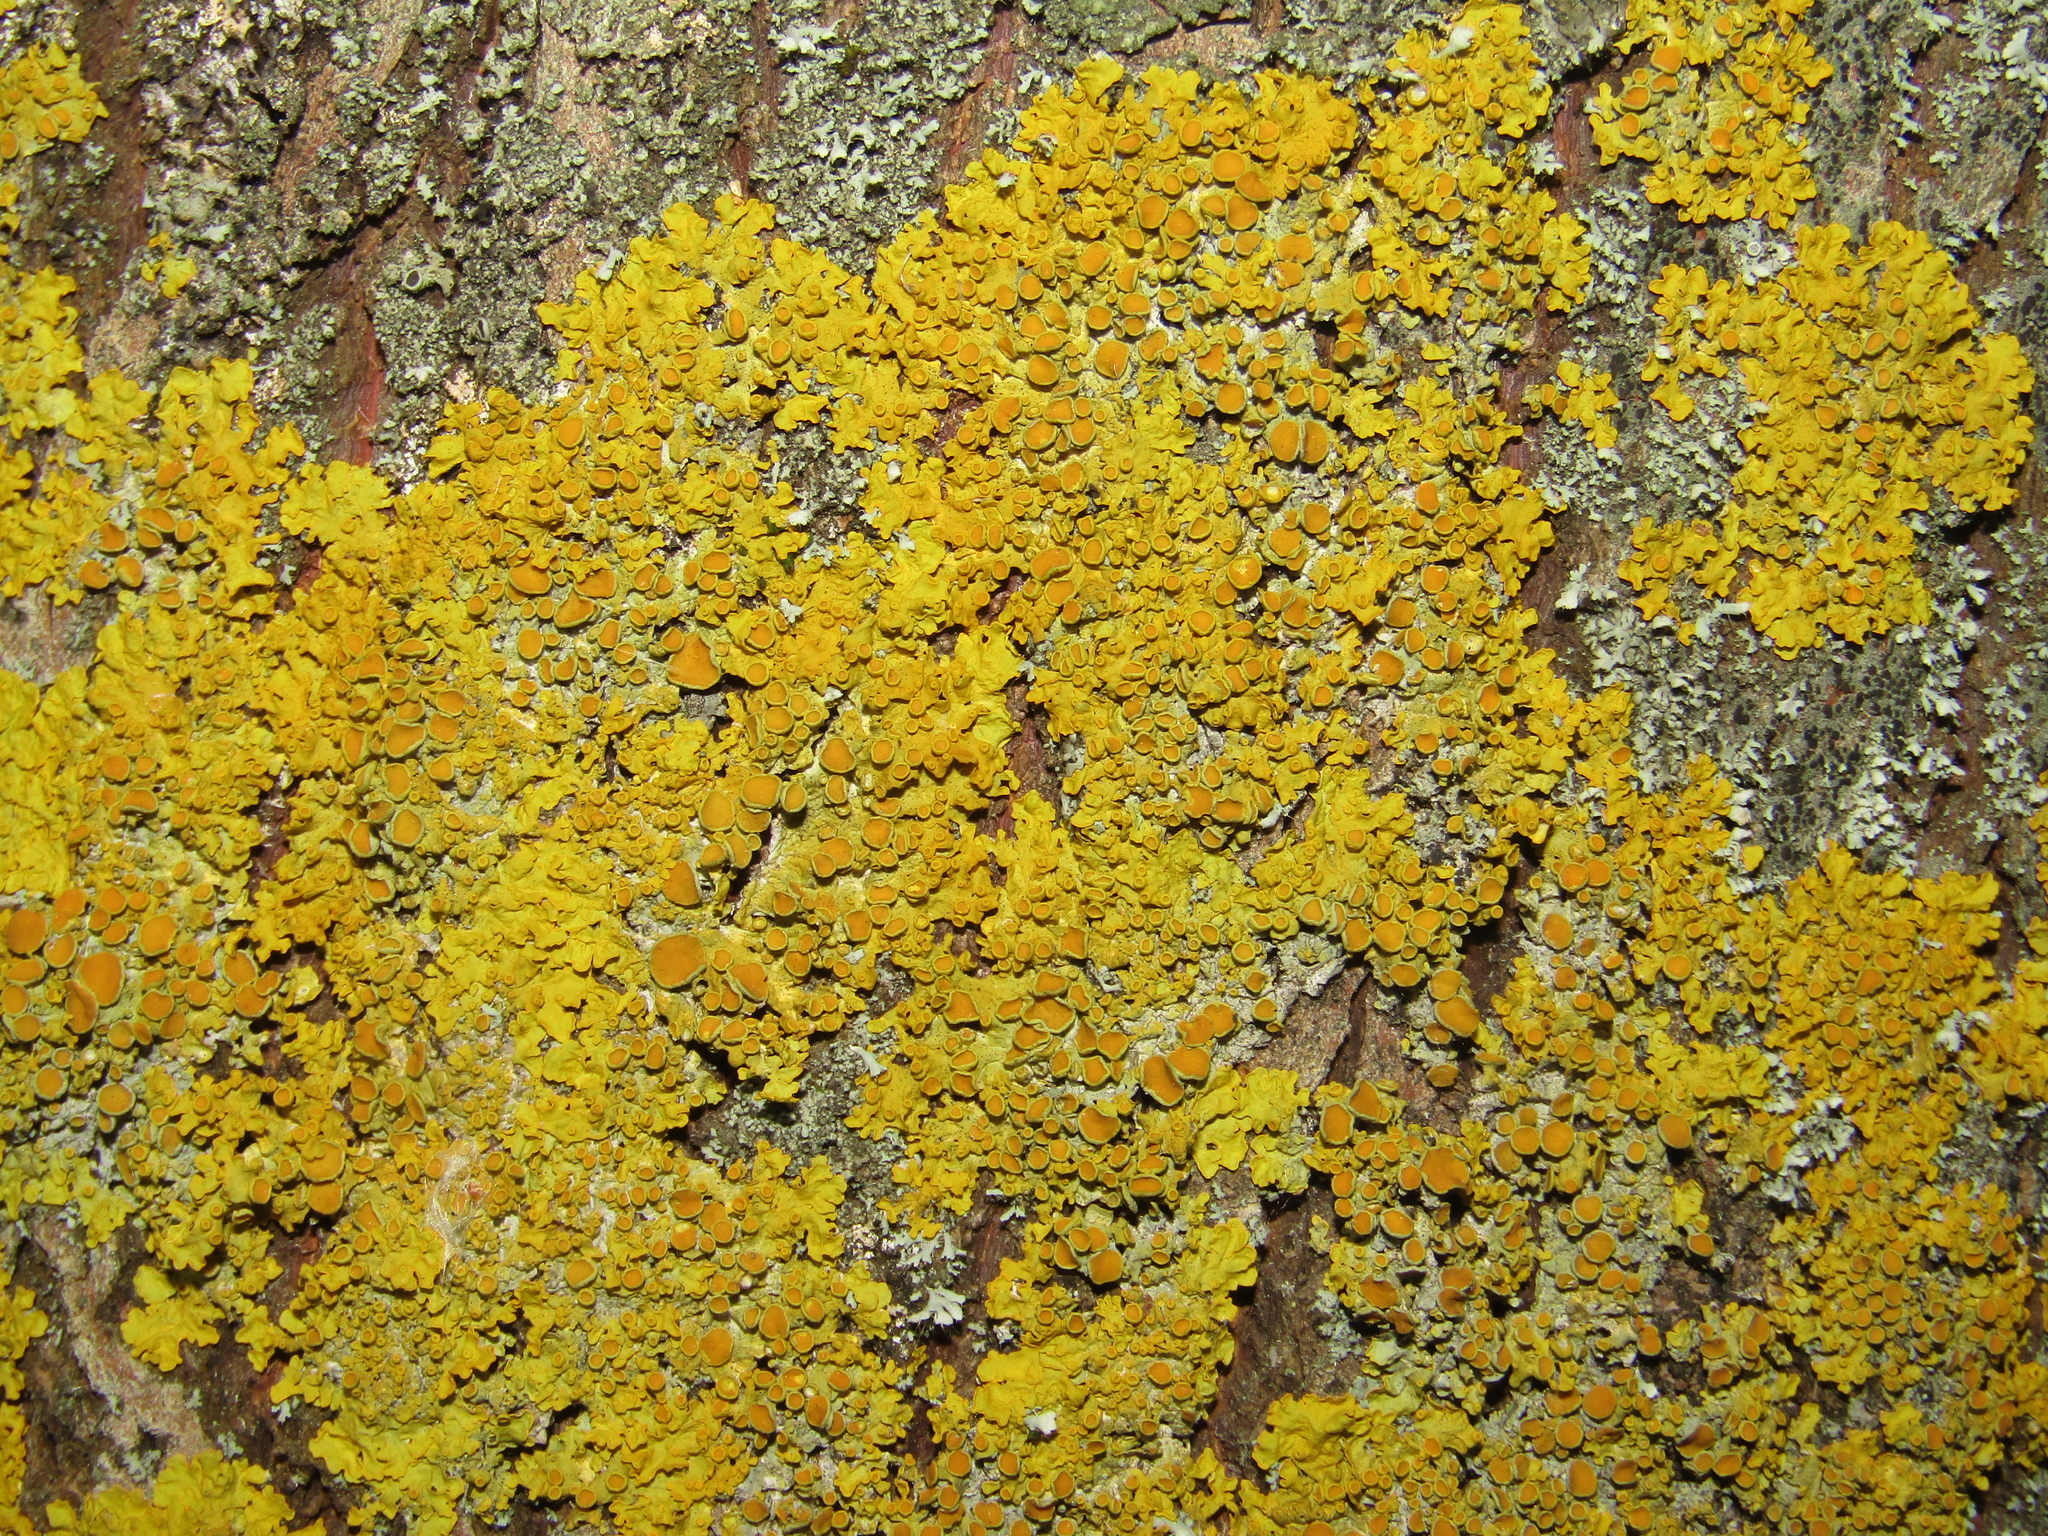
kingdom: Fungi
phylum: Ascomycota
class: Lecanoromycetes
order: Teloschistales
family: Teloschistaceae
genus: Xanthoria
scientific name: Xanthoria parietina
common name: Common orange lichen
